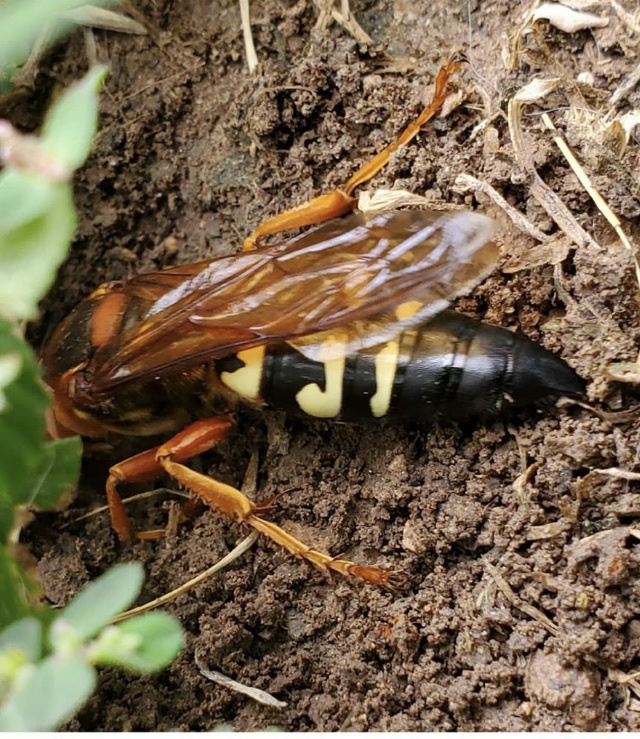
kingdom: Animalia
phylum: Arthropoda
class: Insecta
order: Hymenoptera
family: Crabronidae
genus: Sphecius
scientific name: Sphecius speciosus
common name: Cicada killer
